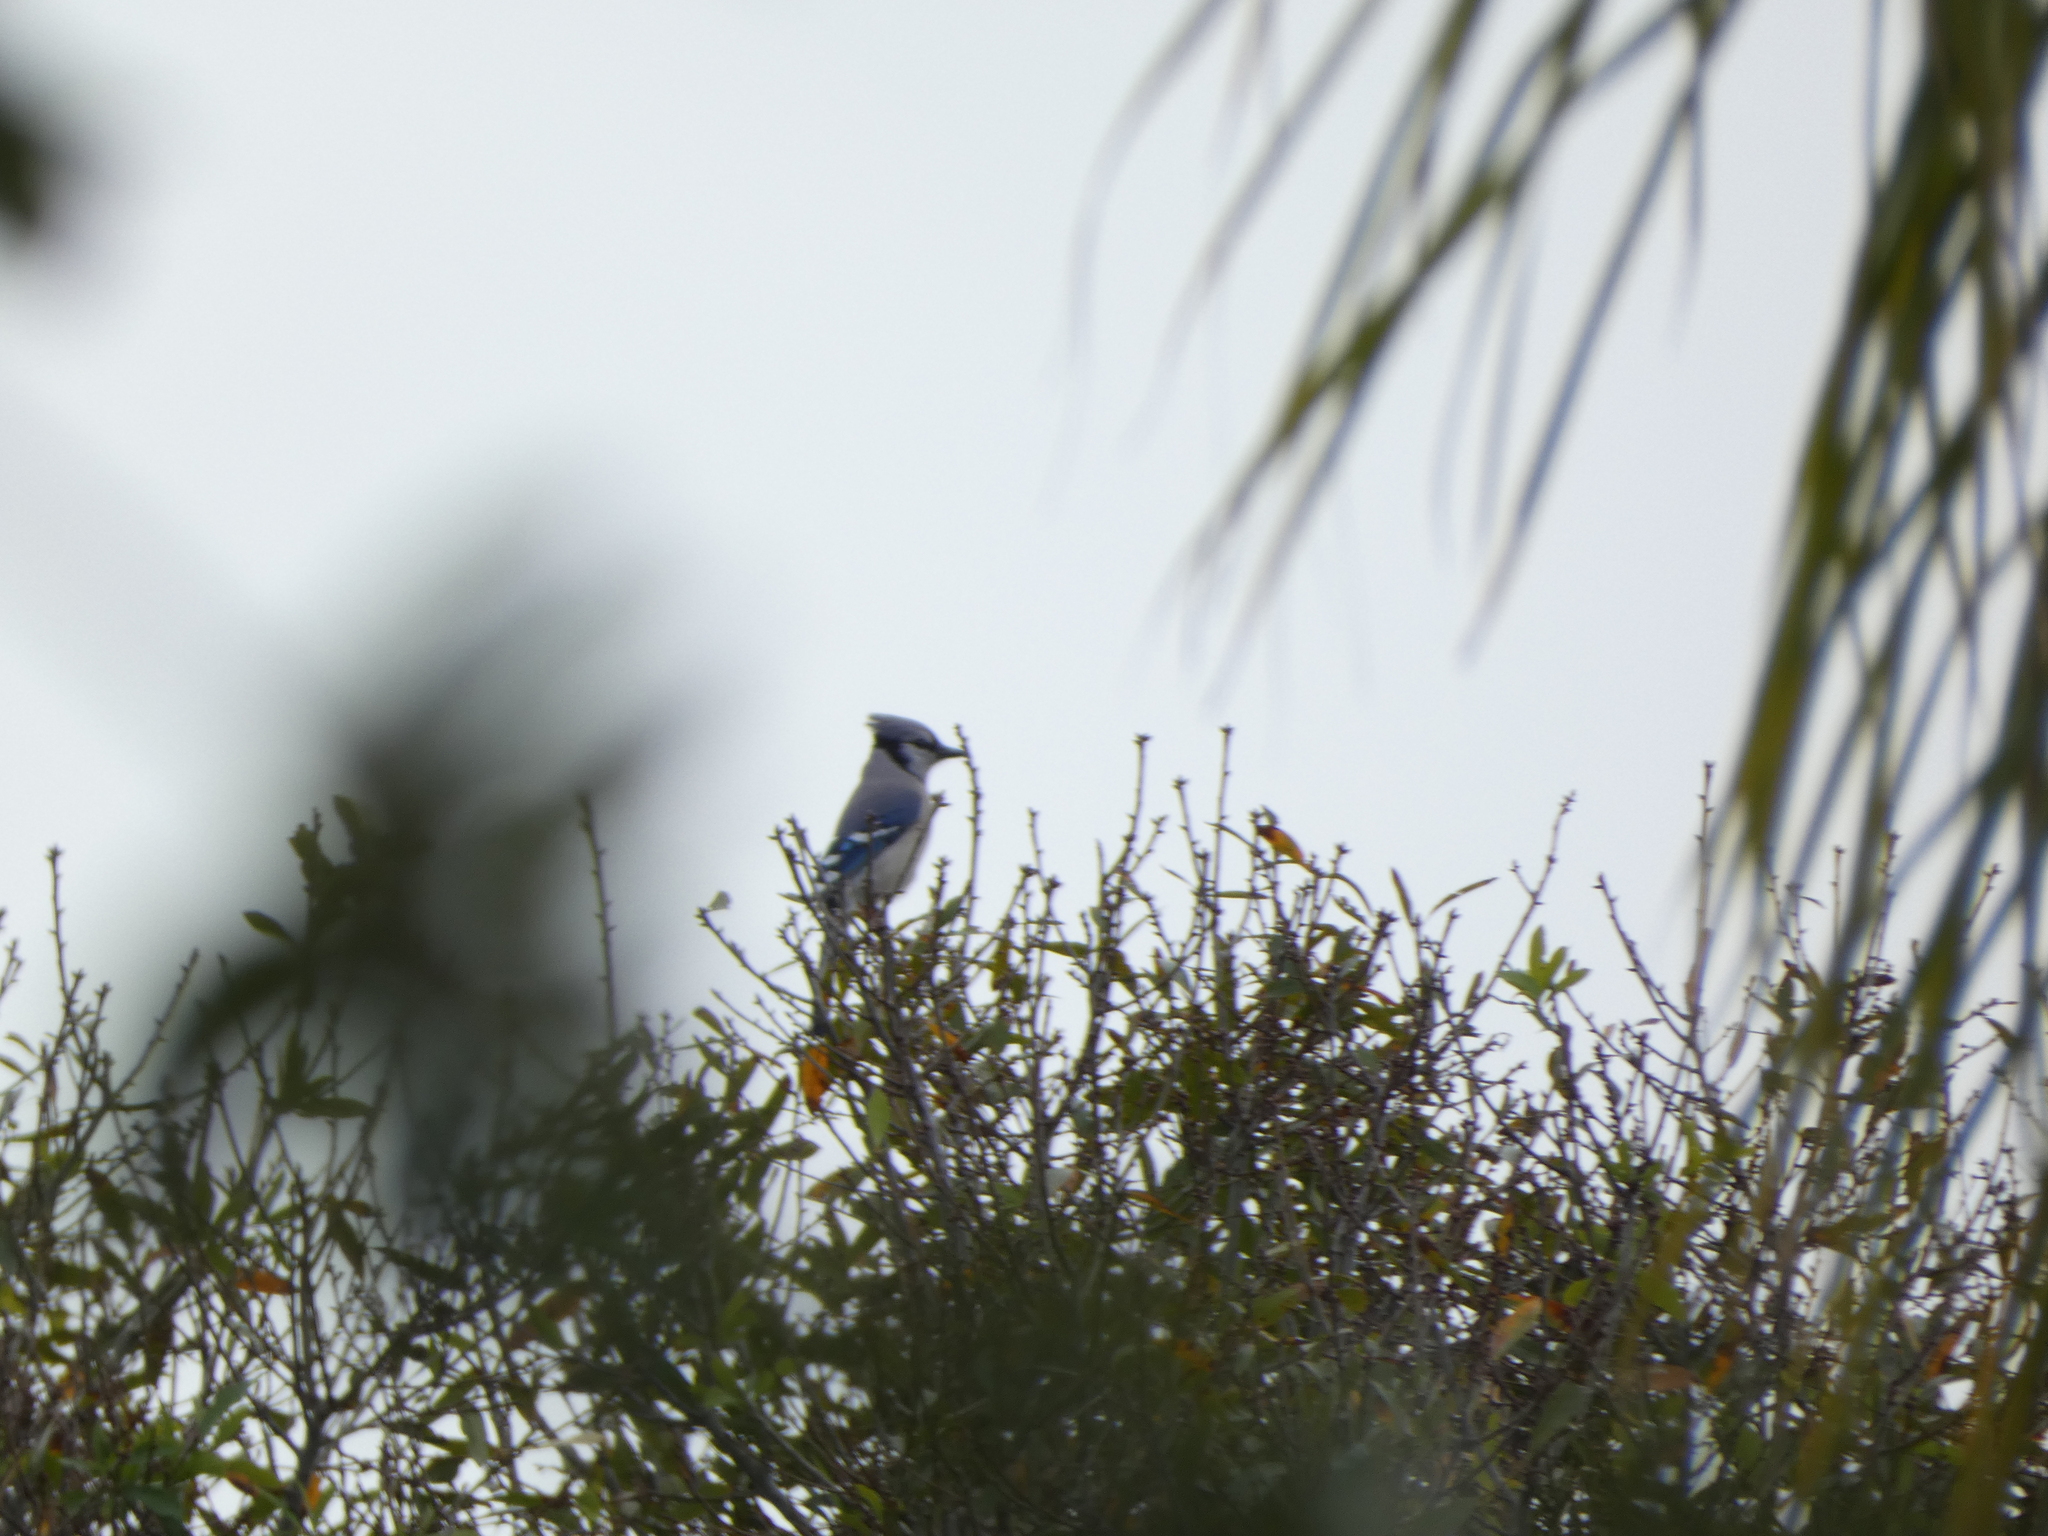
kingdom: Animalia
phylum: Chordata
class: Aves
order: Passeriformes
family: Corvidae
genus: Cyanocitta
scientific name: Cyanocitta cristata
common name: Blue jay
